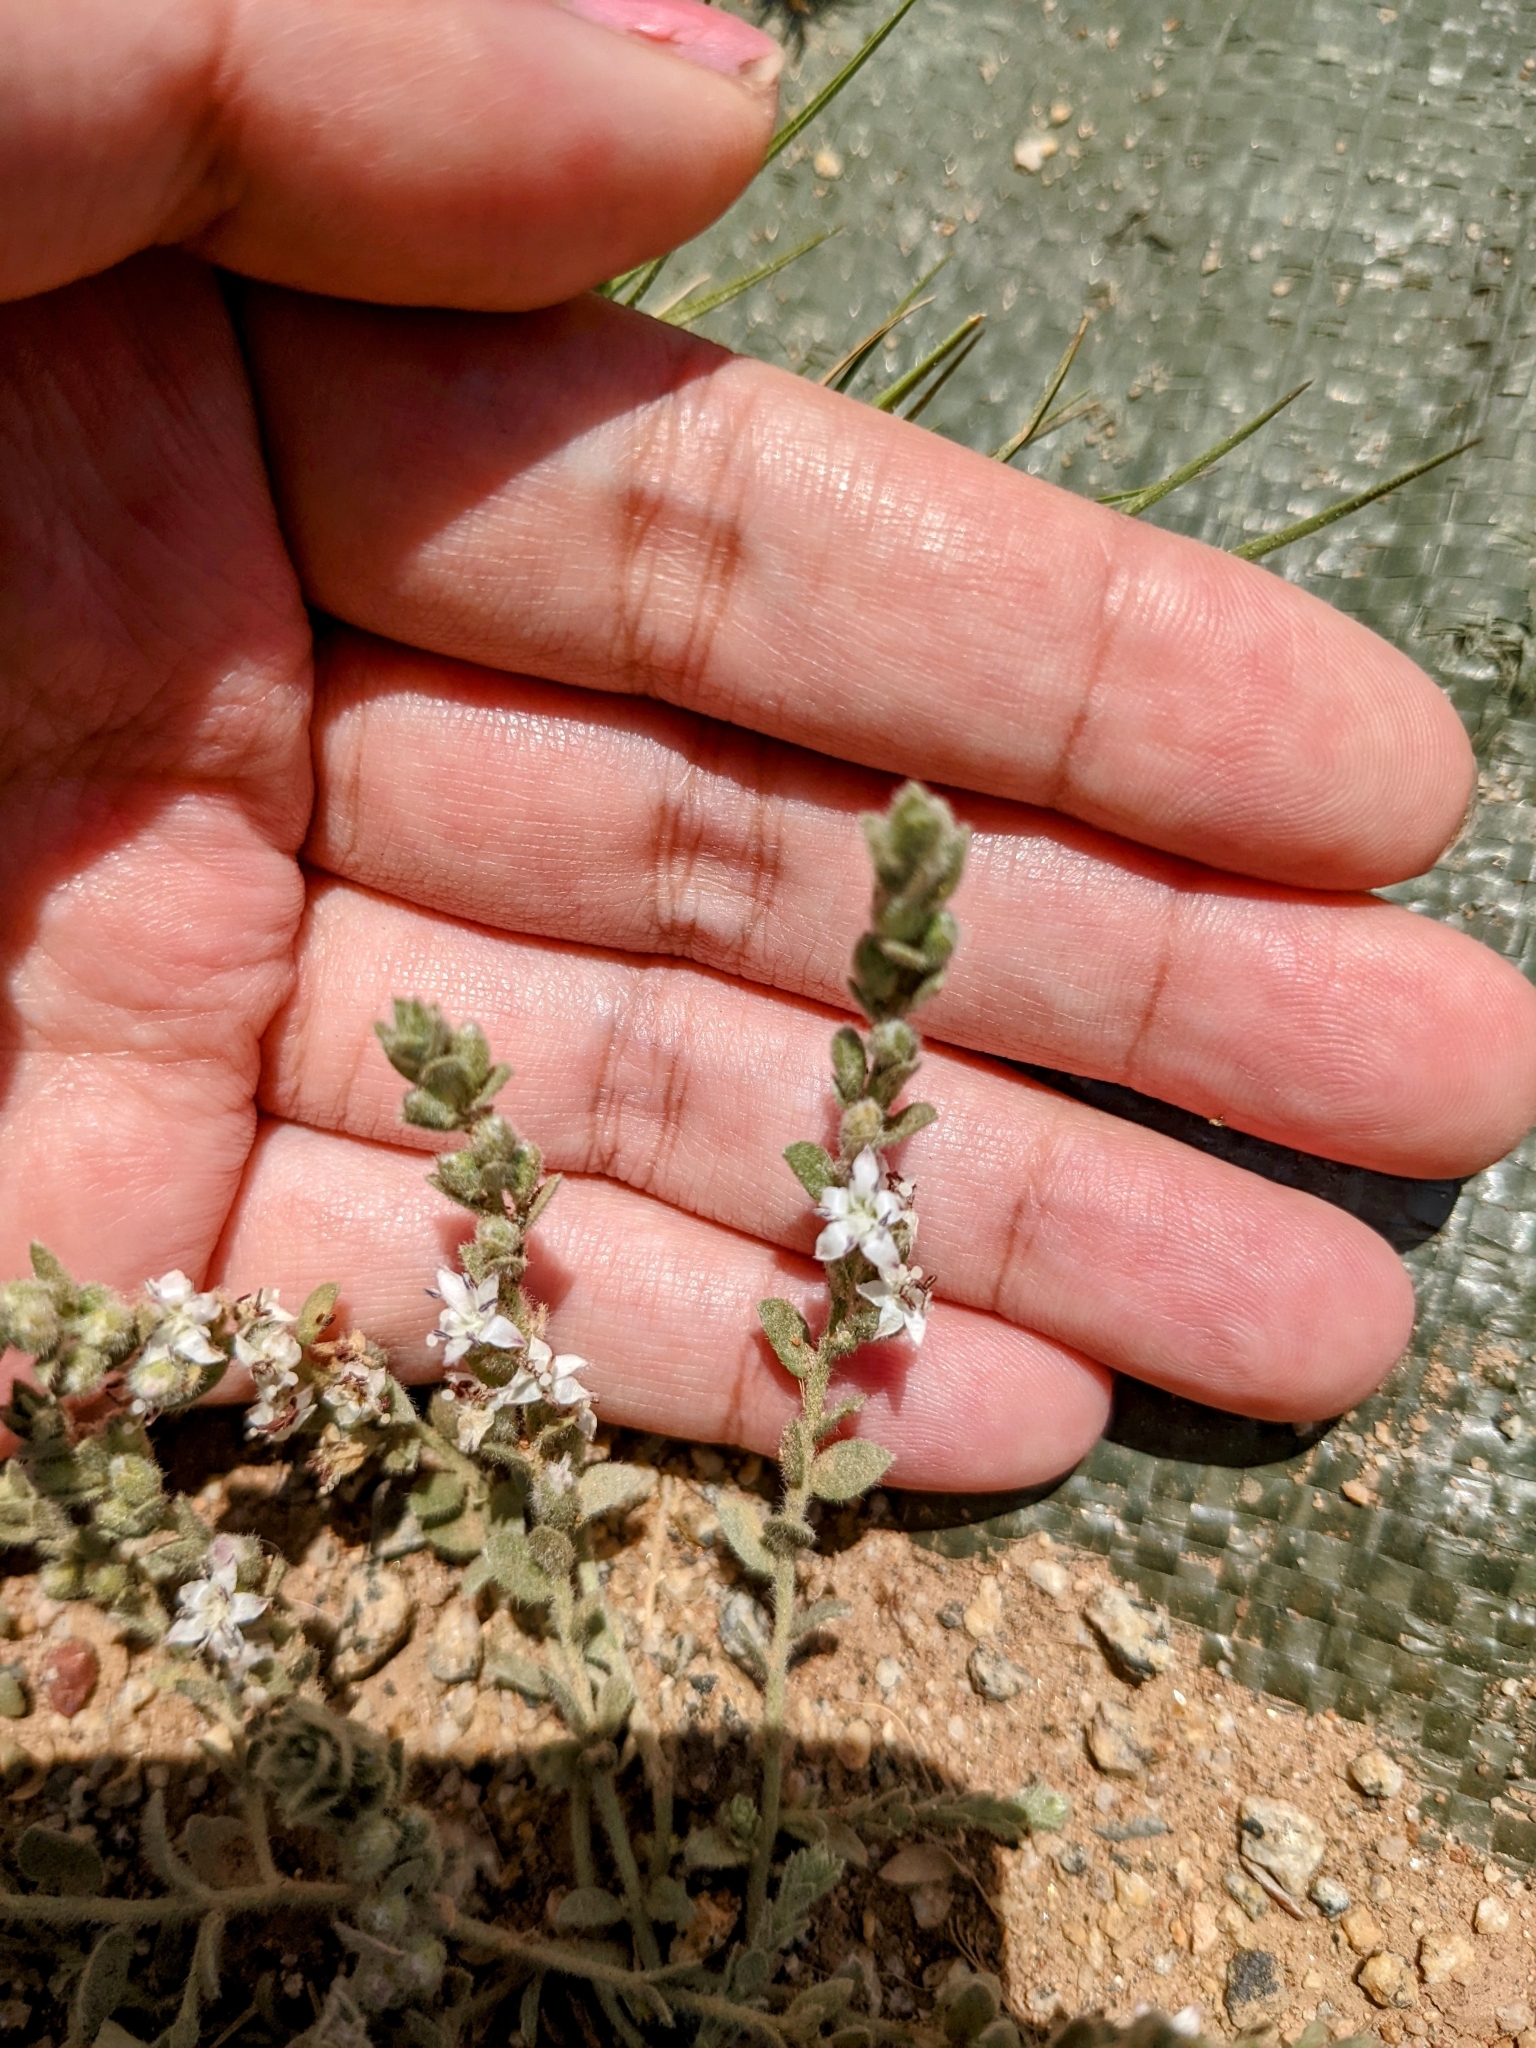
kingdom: Plantae
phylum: Tracheophyta
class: Magnoliopsida
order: Solanales
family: Convolvulaceae
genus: Cressa
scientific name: Cressa truxillensis
